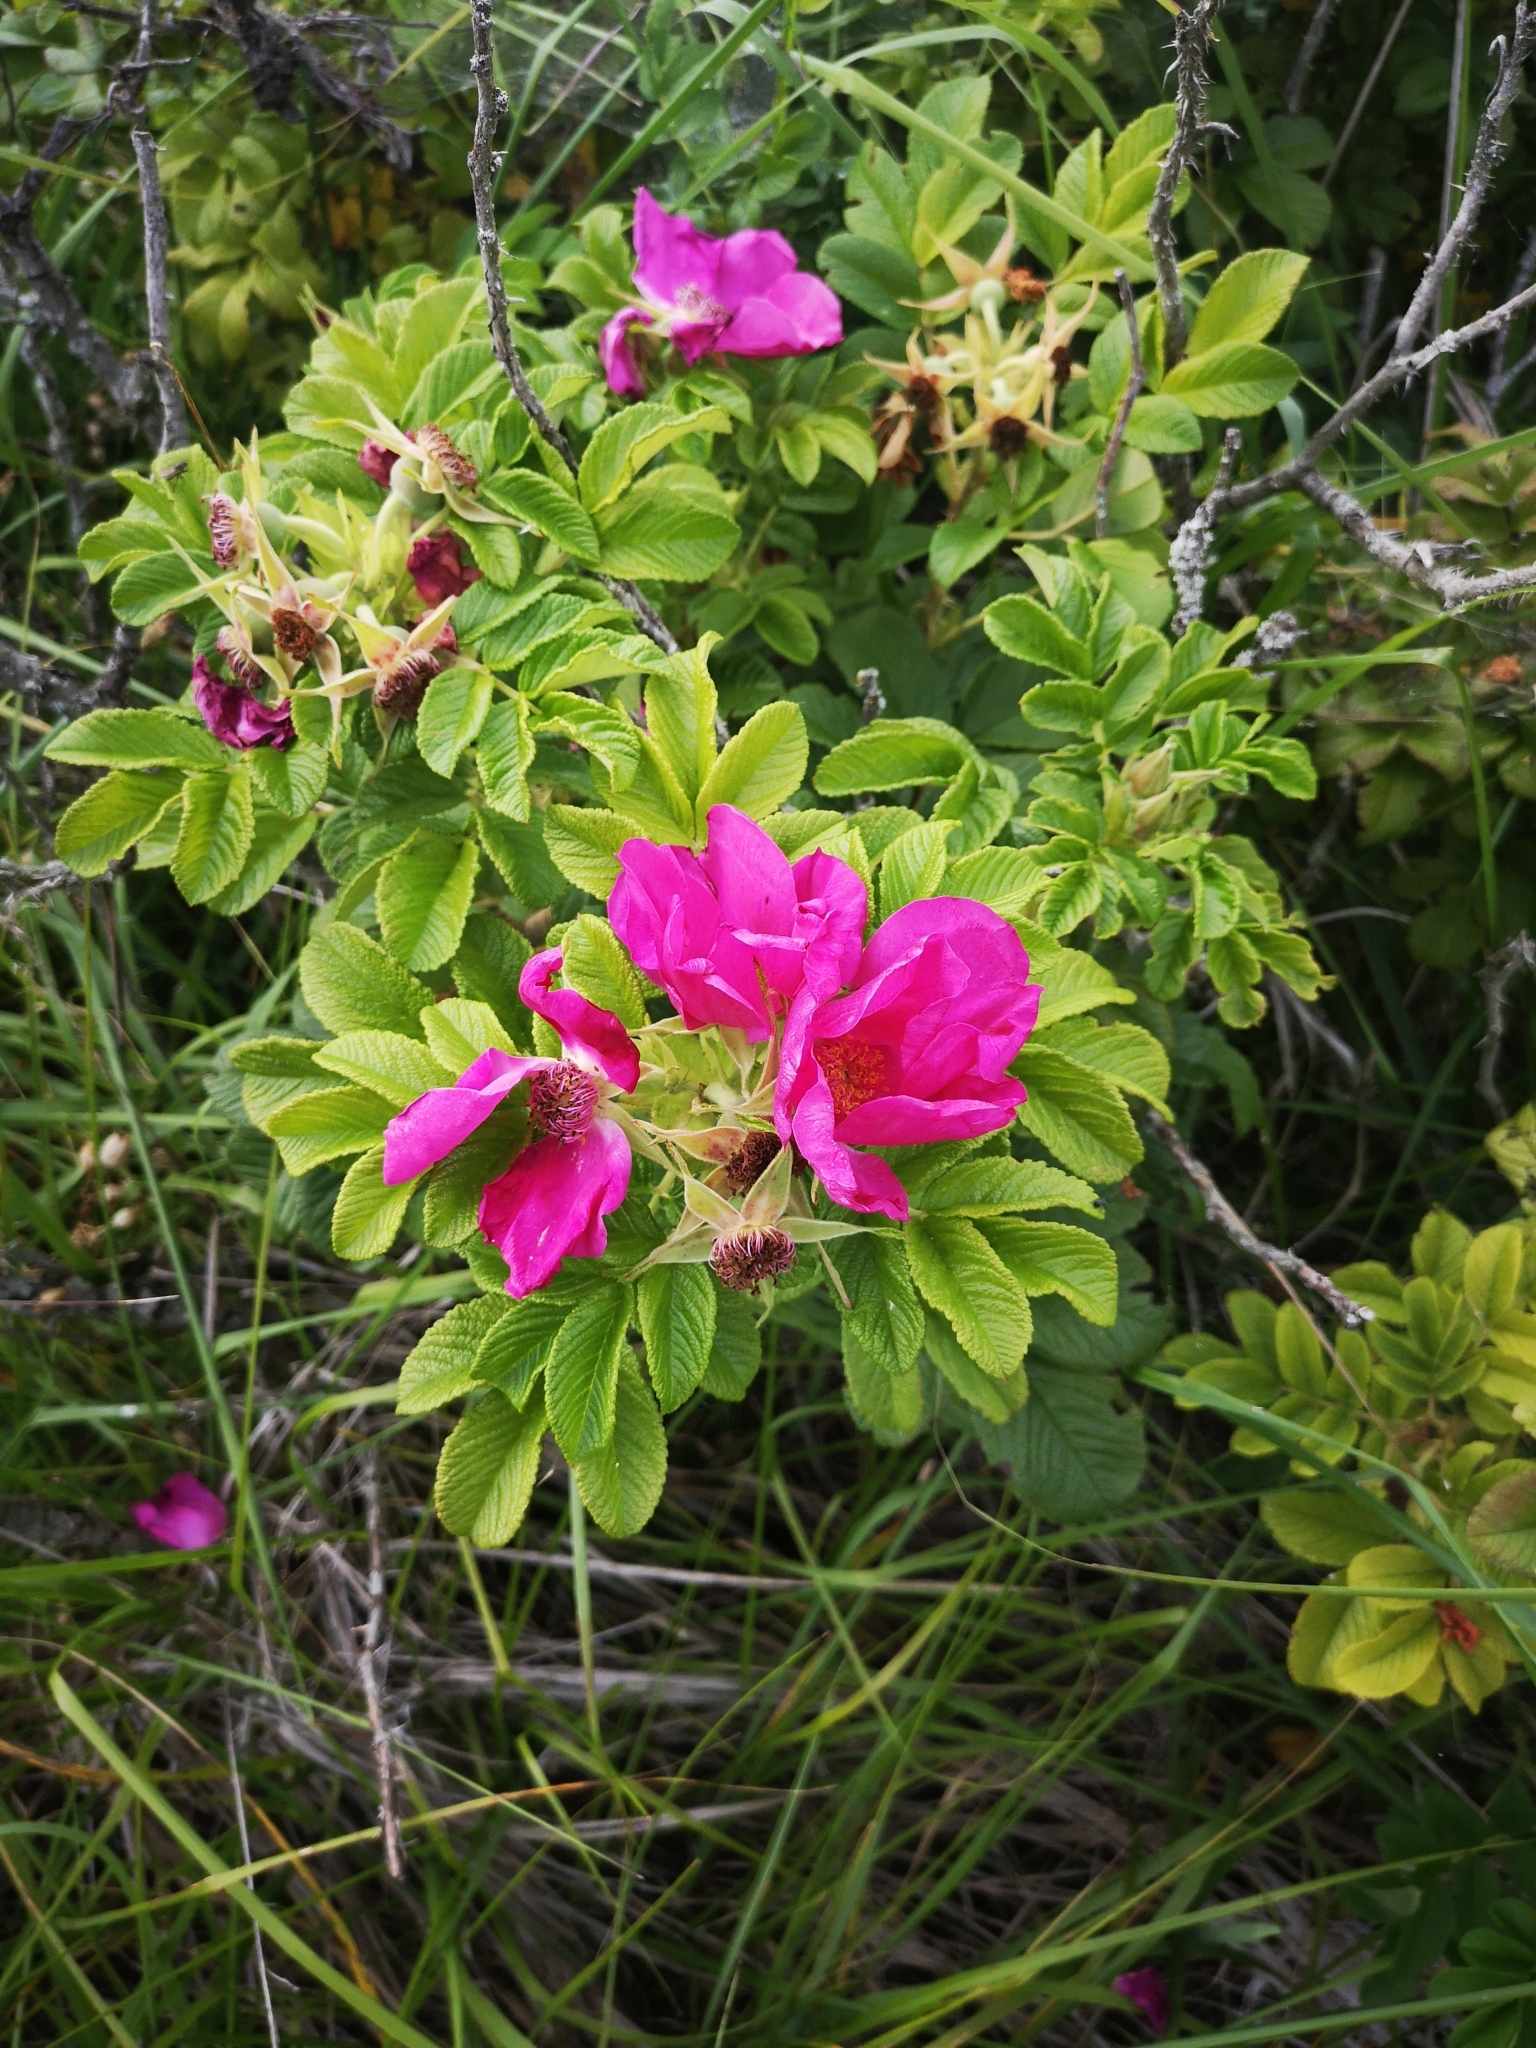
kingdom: Plantae
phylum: Tracheophyta
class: Magnoliopsida
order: Rosales
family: Rosaceae
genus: Rosa
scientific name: Rosa rugosa
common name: Japanese rose
